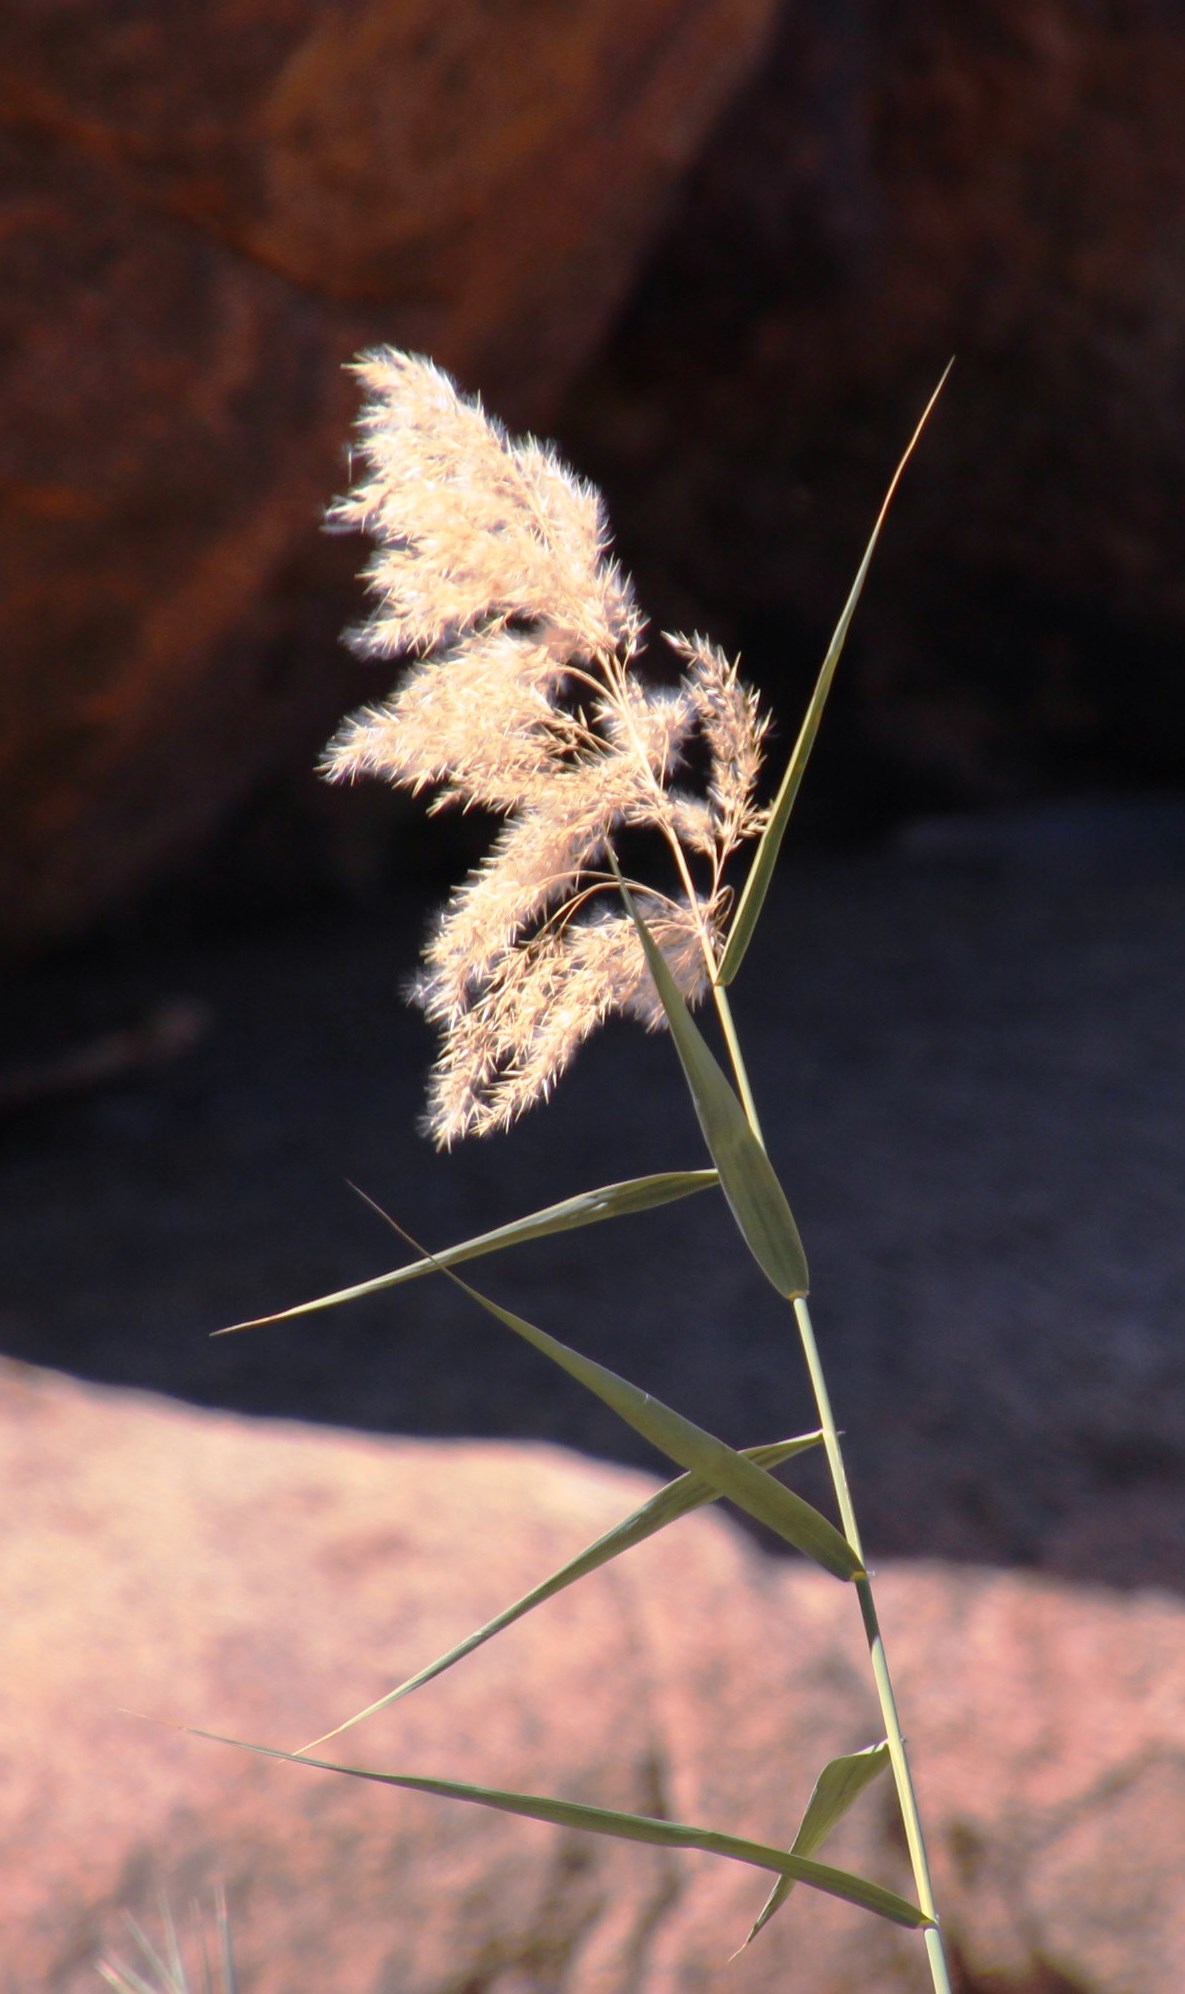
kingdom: Plantae
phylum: Tracheophyta
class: Liliopsida
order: Poales
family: Poaceae
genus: Phragmites
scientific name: Phragmites australis
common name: Common reed
